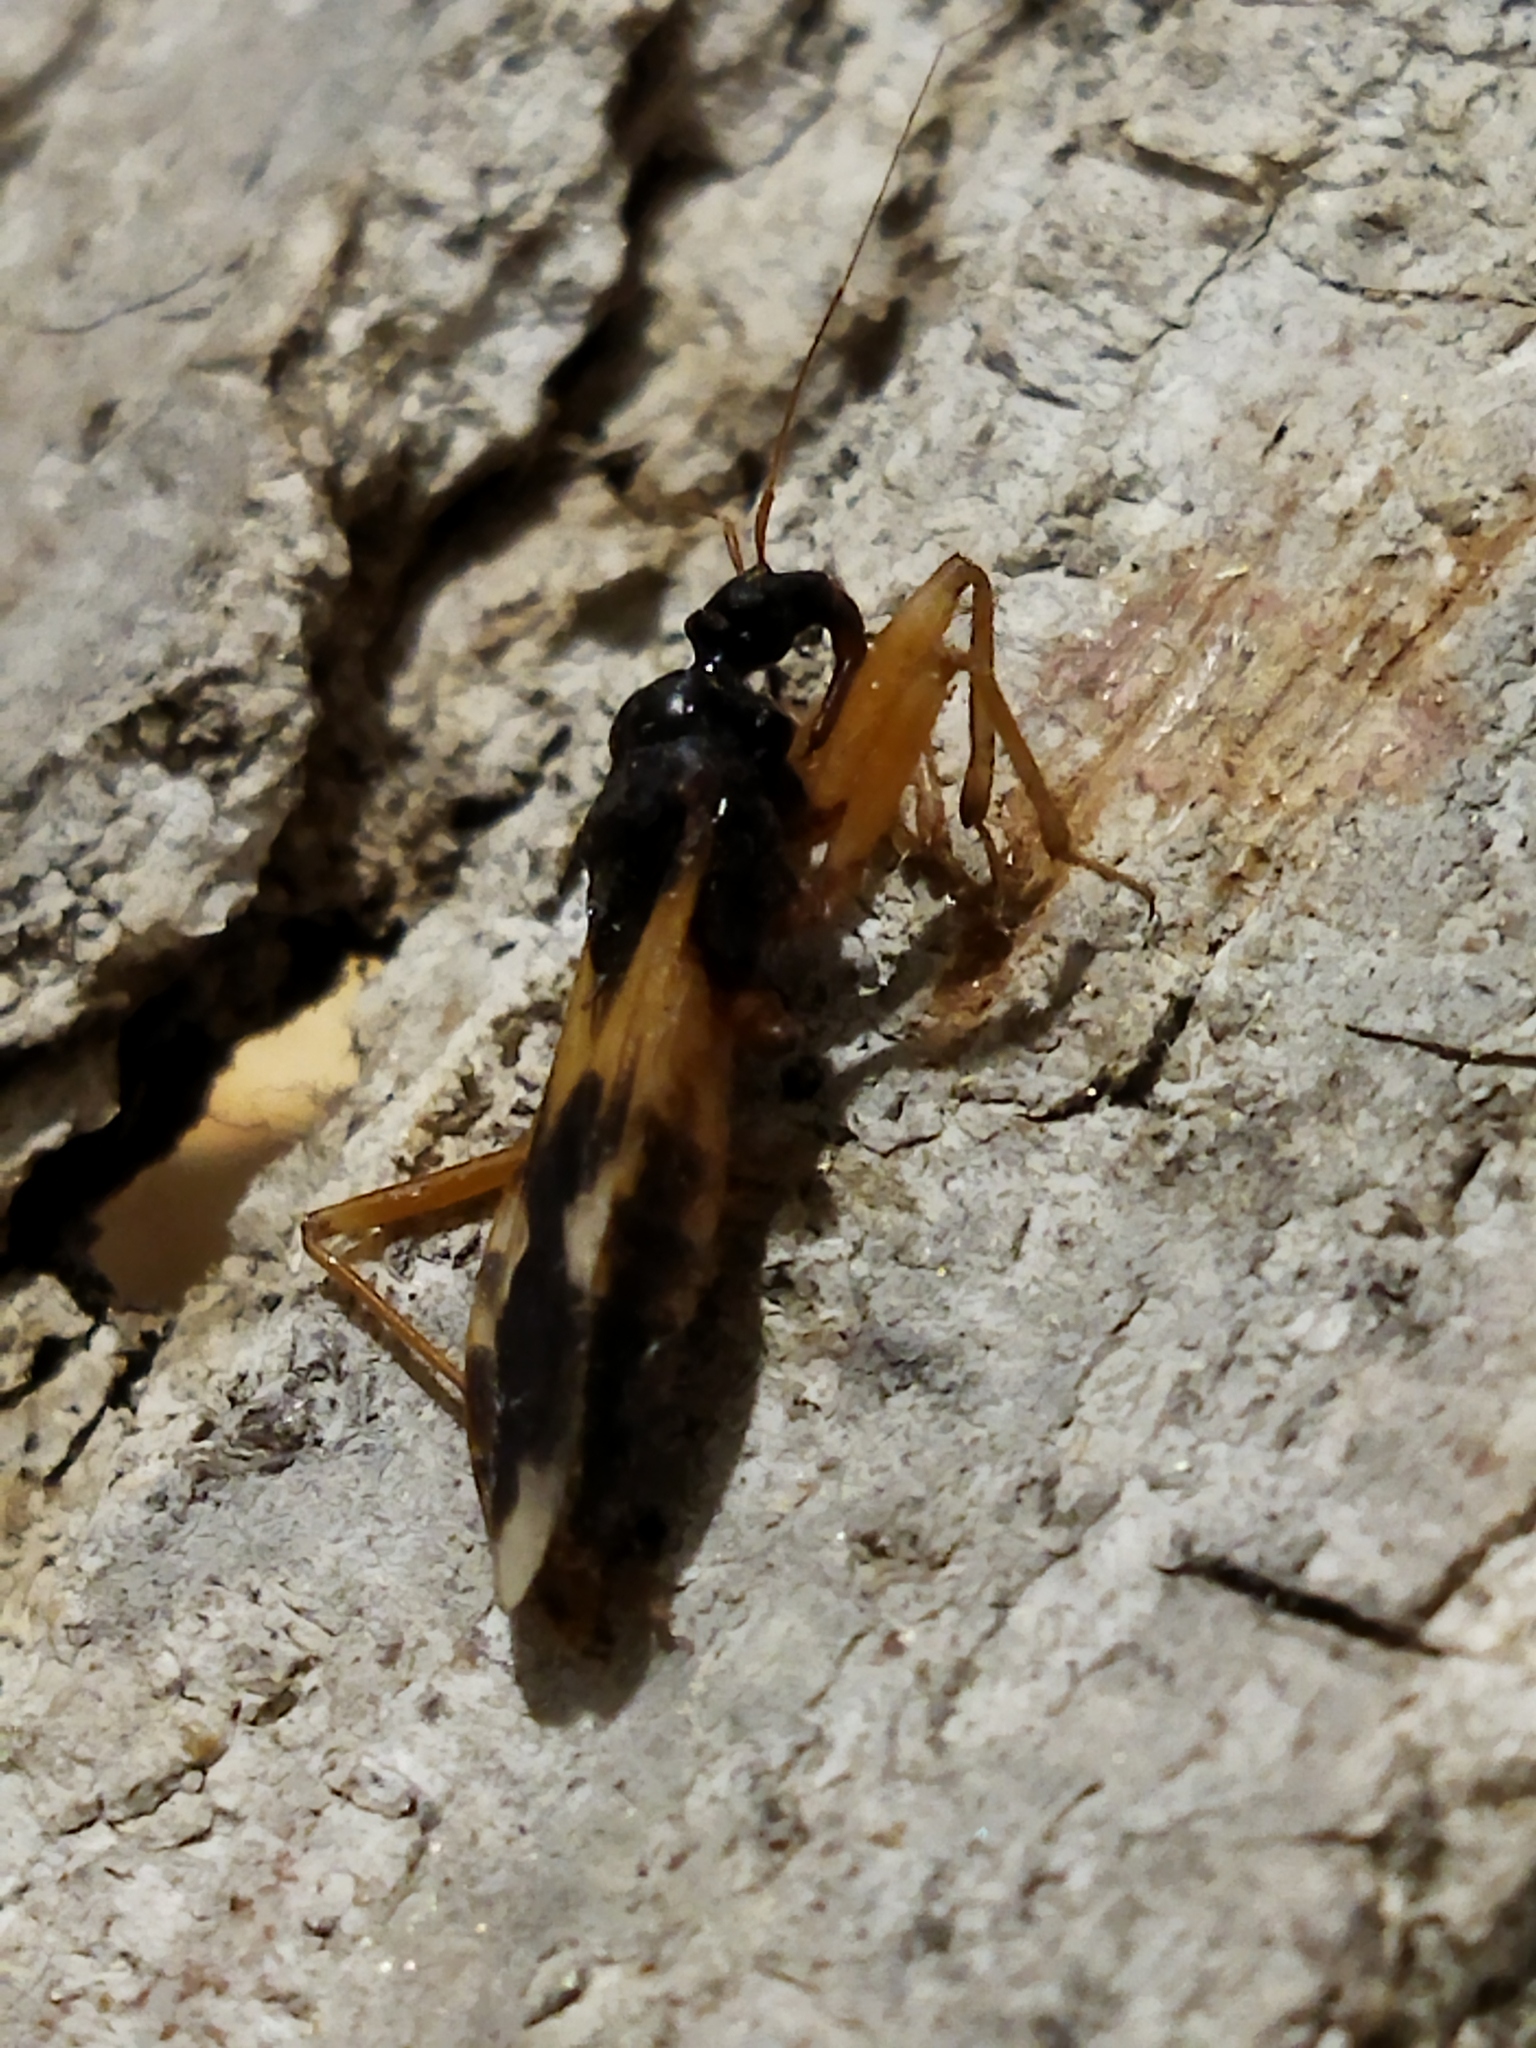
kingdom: Animalia
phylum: Arthropoda
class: Insecta
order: Hemiptera
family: Reduviidae
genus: Reduvius
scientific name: Reduvius pallipes
